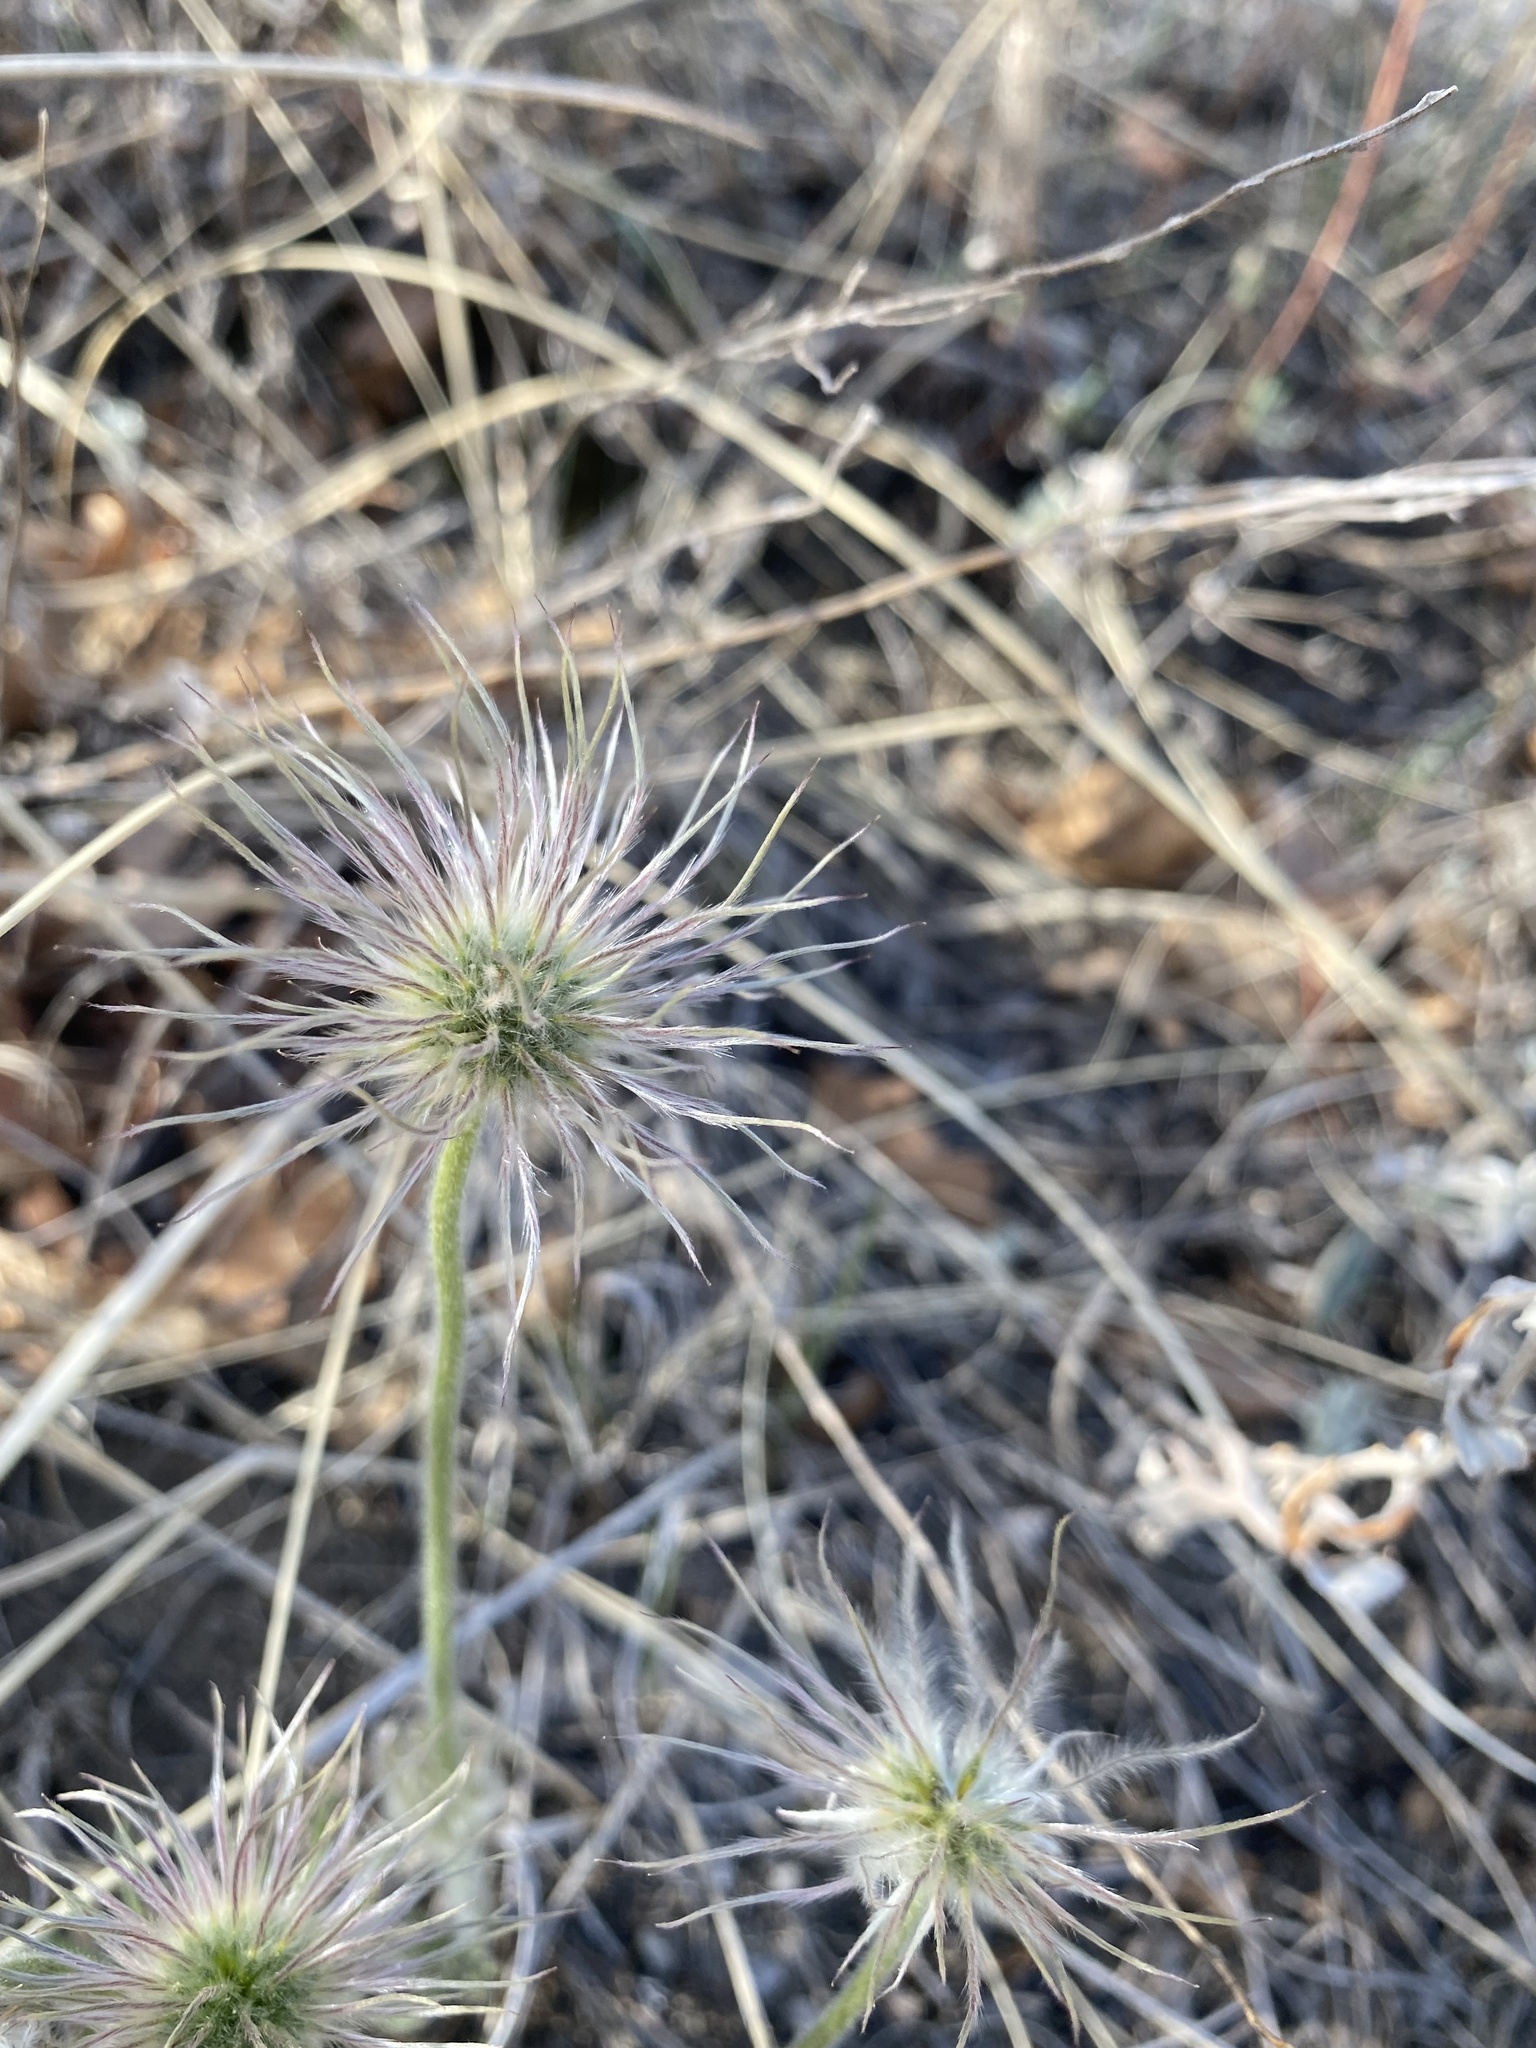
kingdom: Plantae
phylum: Tracheophyta
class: Magnoliopsida
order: Ranunculales
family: Ranunculaceae
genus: Pulsatilla
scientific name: Pulsatilla nuttalliana
